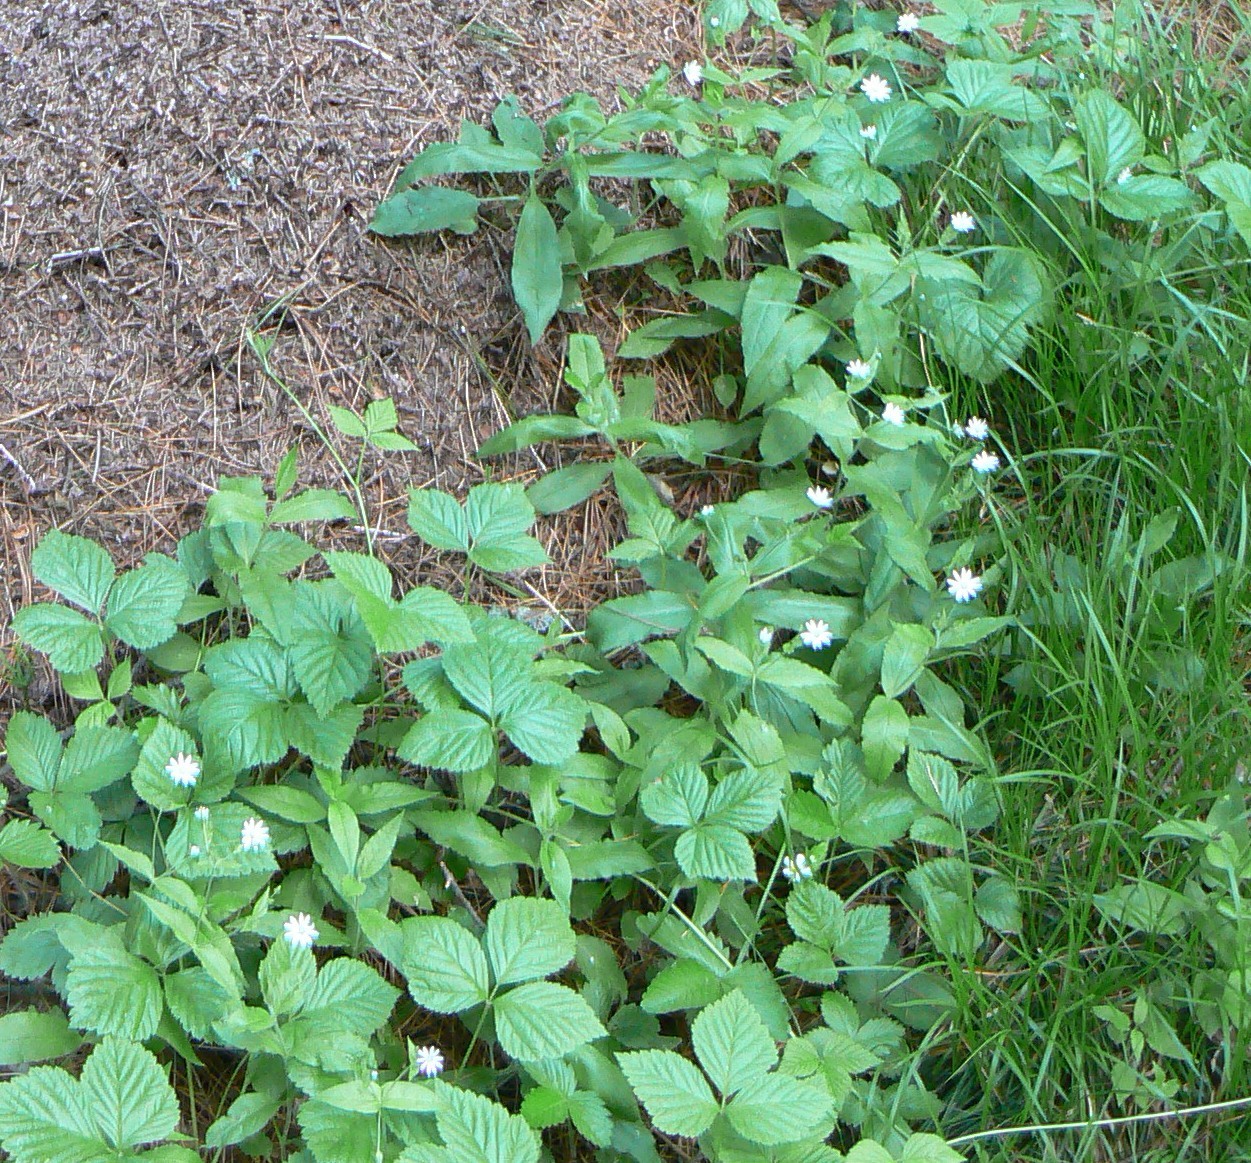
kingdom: Plantae
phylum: Tracheophyta
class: Magnoliopsida
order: Caryophyllales
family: Caryophyllaceae
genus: Stellaria
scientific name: Stellaria bungeana
